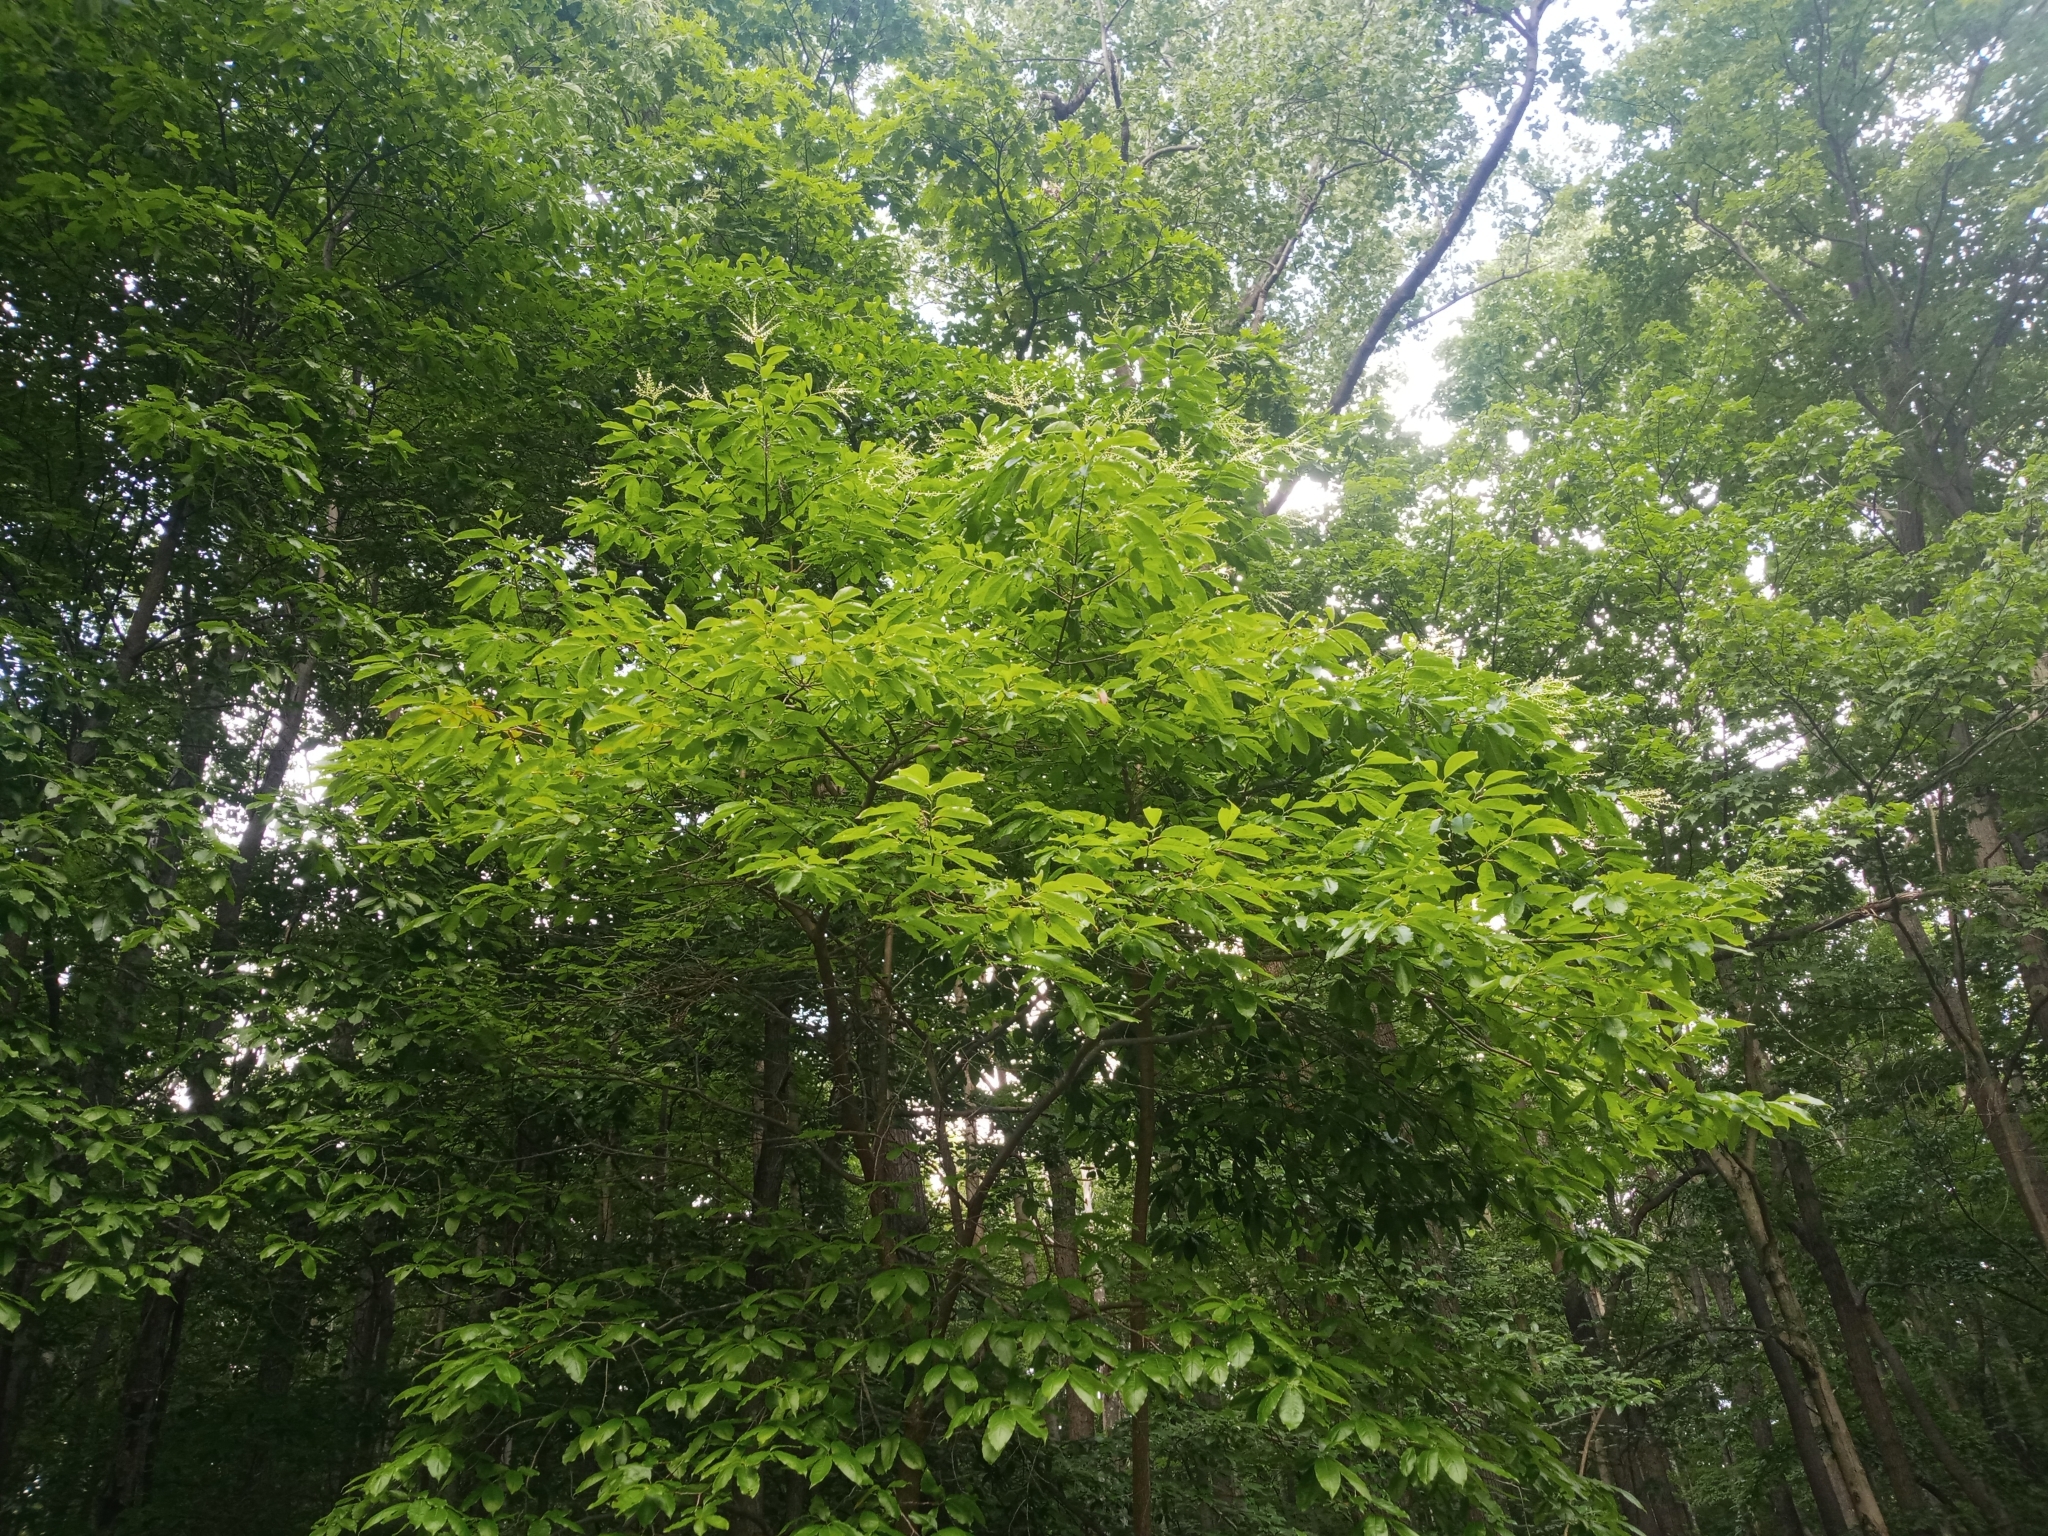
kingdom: Plantae
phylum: Tracheophyta
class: Magnoliopsida
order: Ericales
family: Ericaceae
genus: Oxydendrum
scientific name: Oxydendrum arboreum
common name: Sourwood
